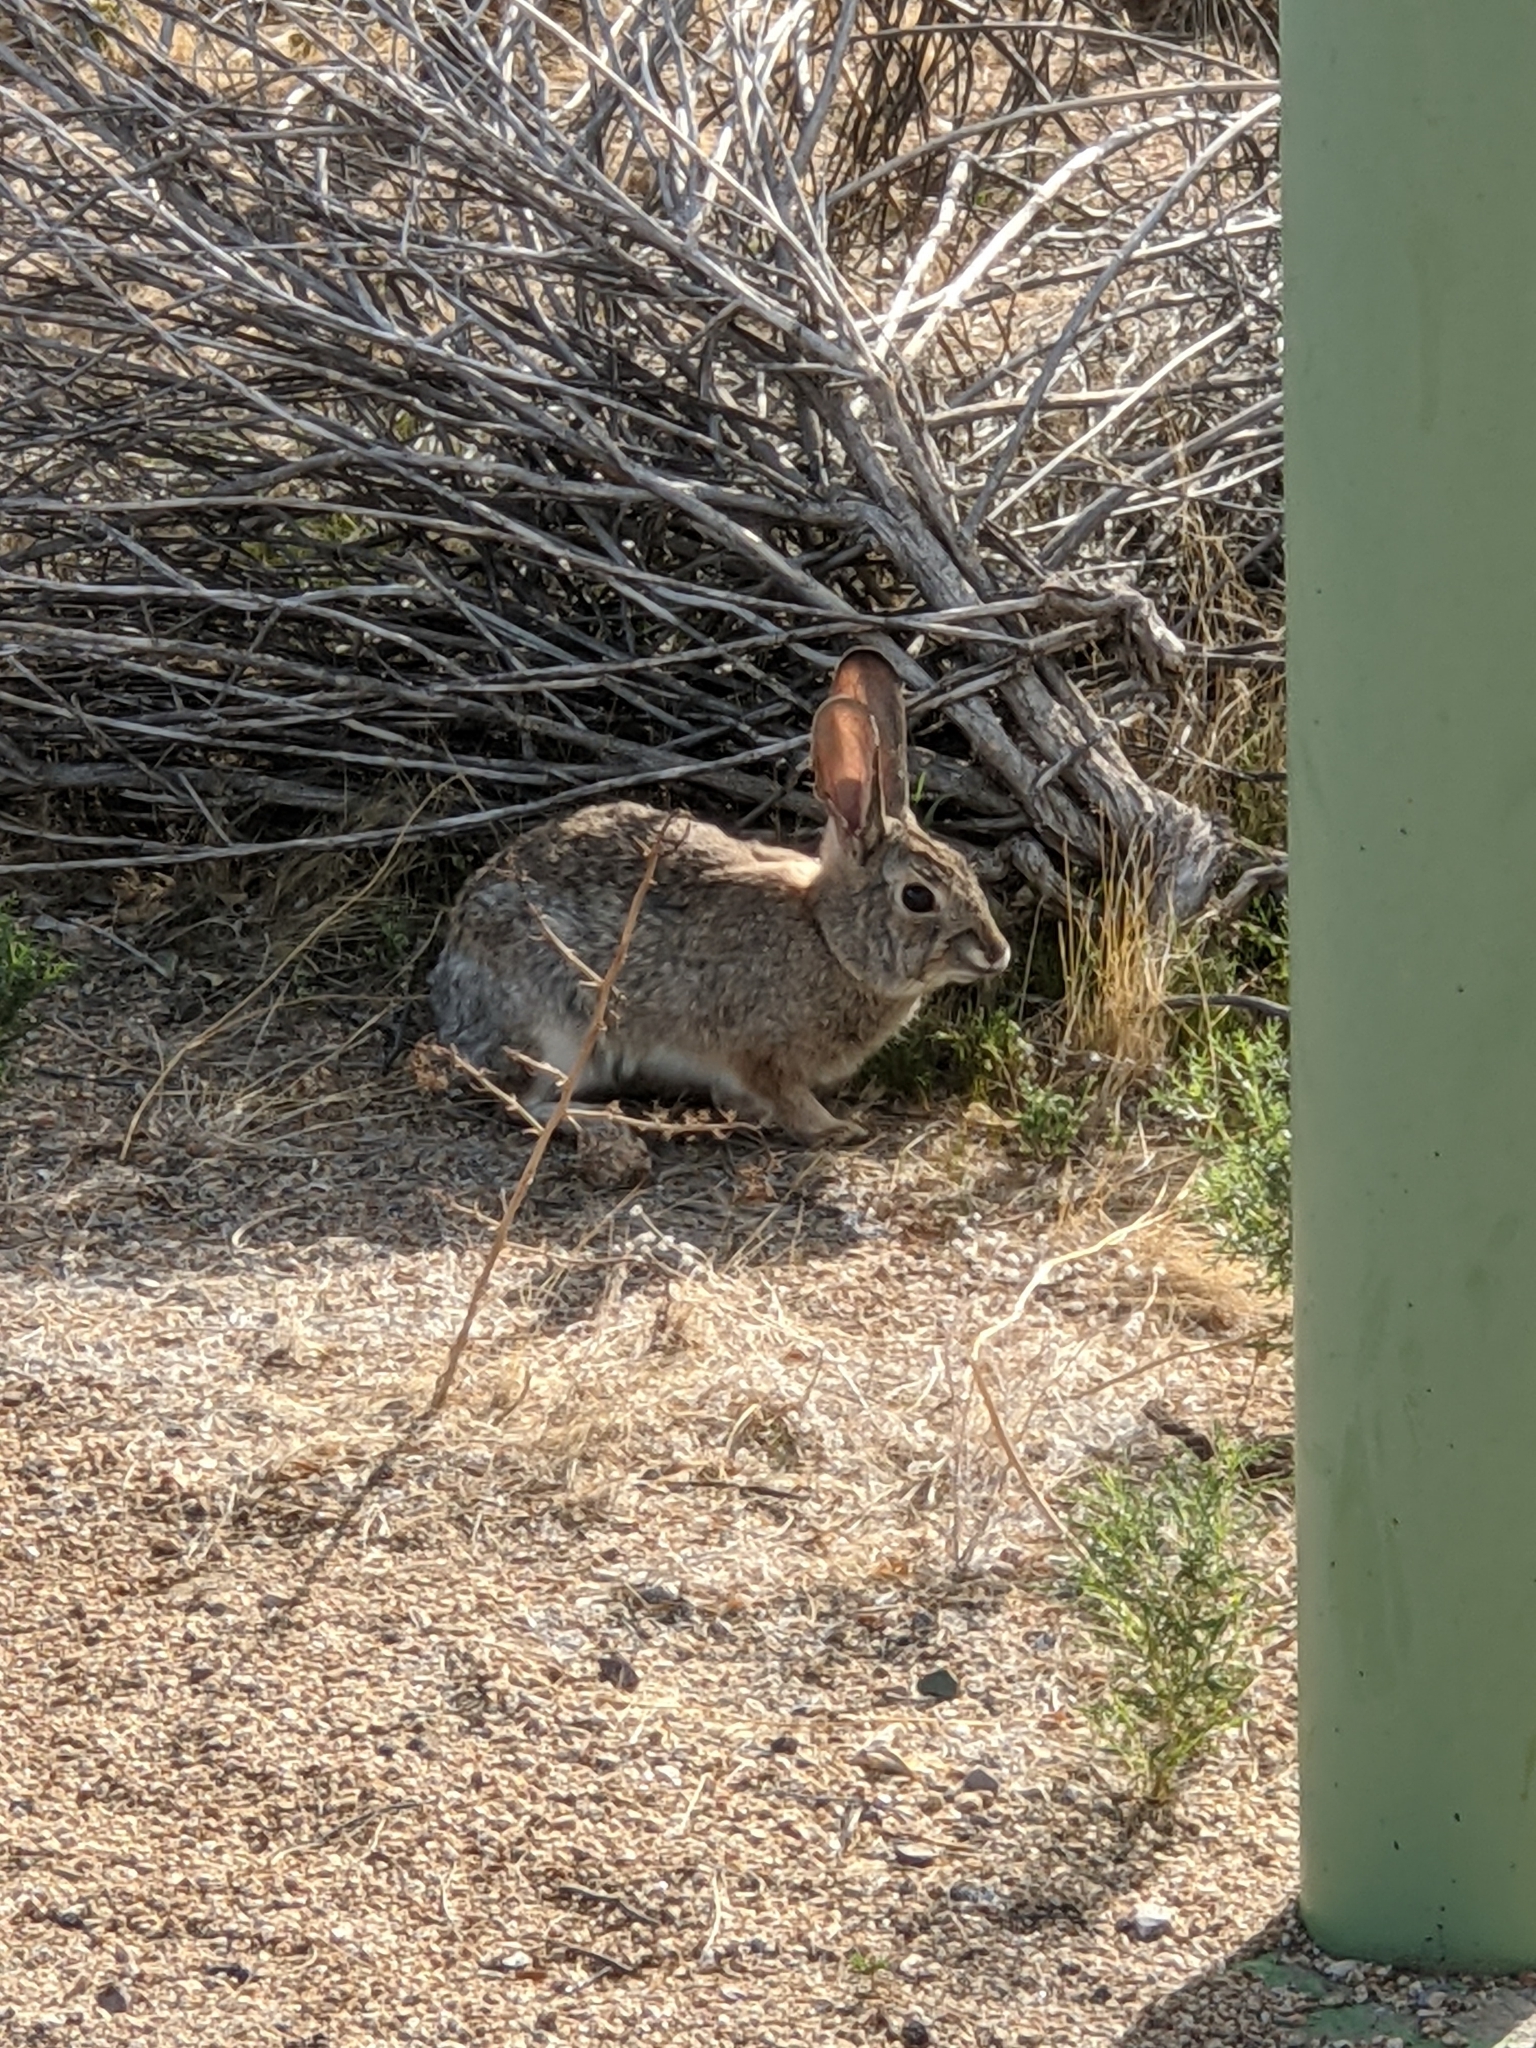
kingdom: Animalia
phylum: Chordata
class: Mammalia
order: Lagomorpha
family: Leporidae
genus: Sylvilagus
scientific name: Sylvilagus audubonii
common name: Desert cottontail
